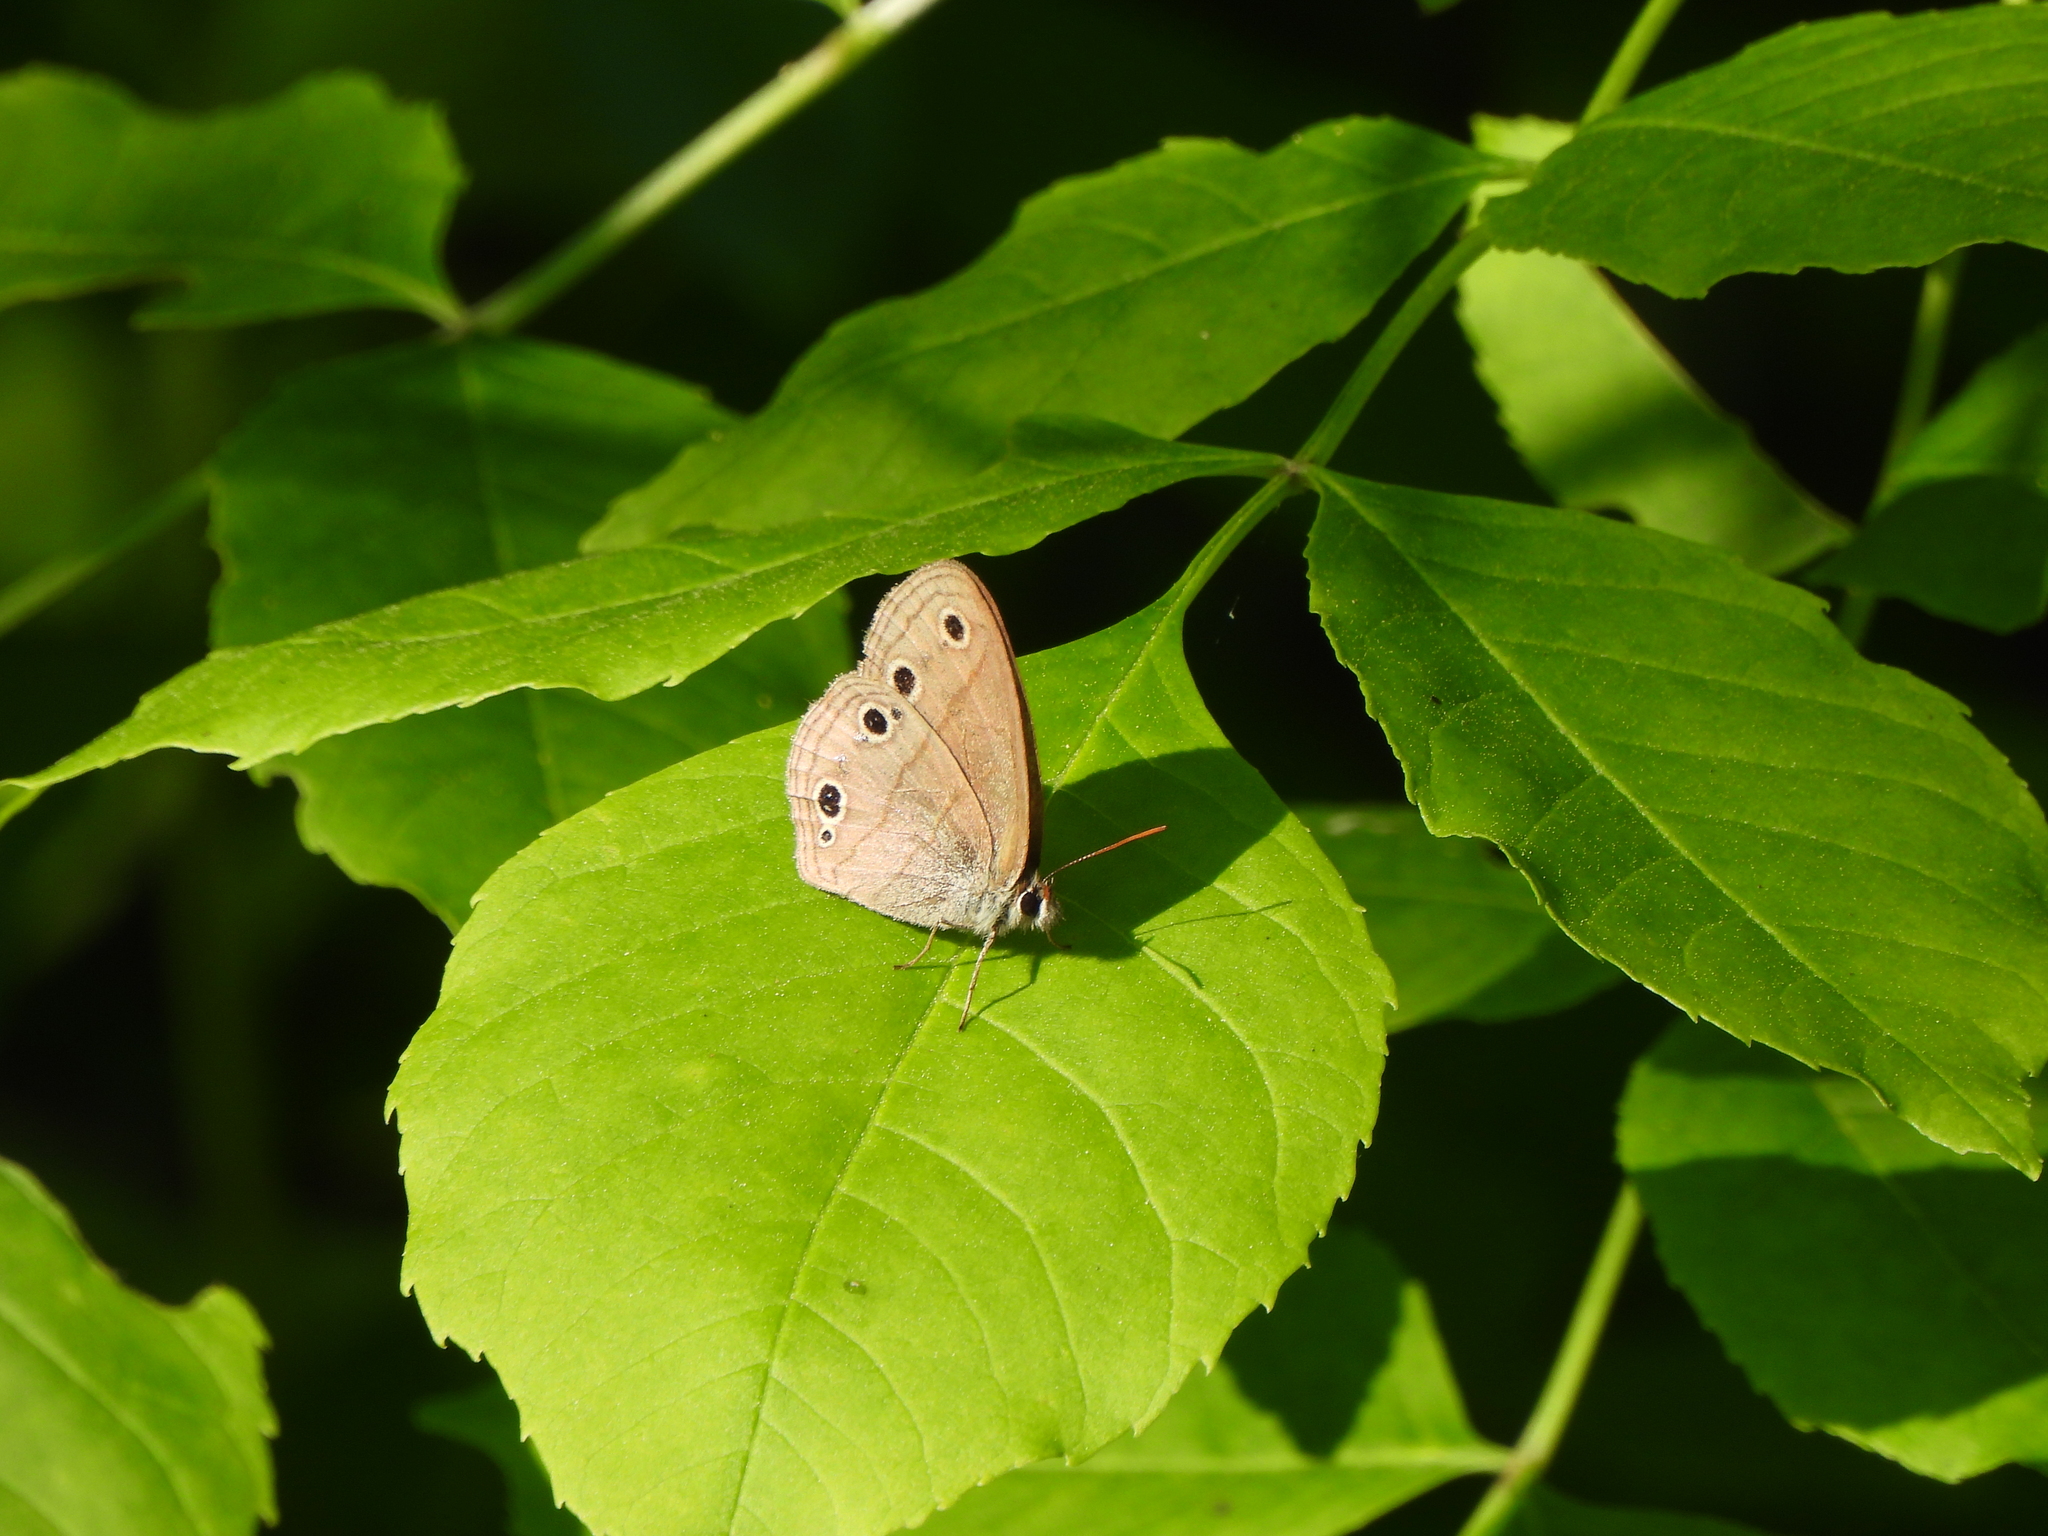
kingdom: Animalia
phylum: Arthropoda
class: Insecta
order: Lepidoptera
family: Nymphalidae
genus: Euptychia
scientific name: Euptychia cymela
